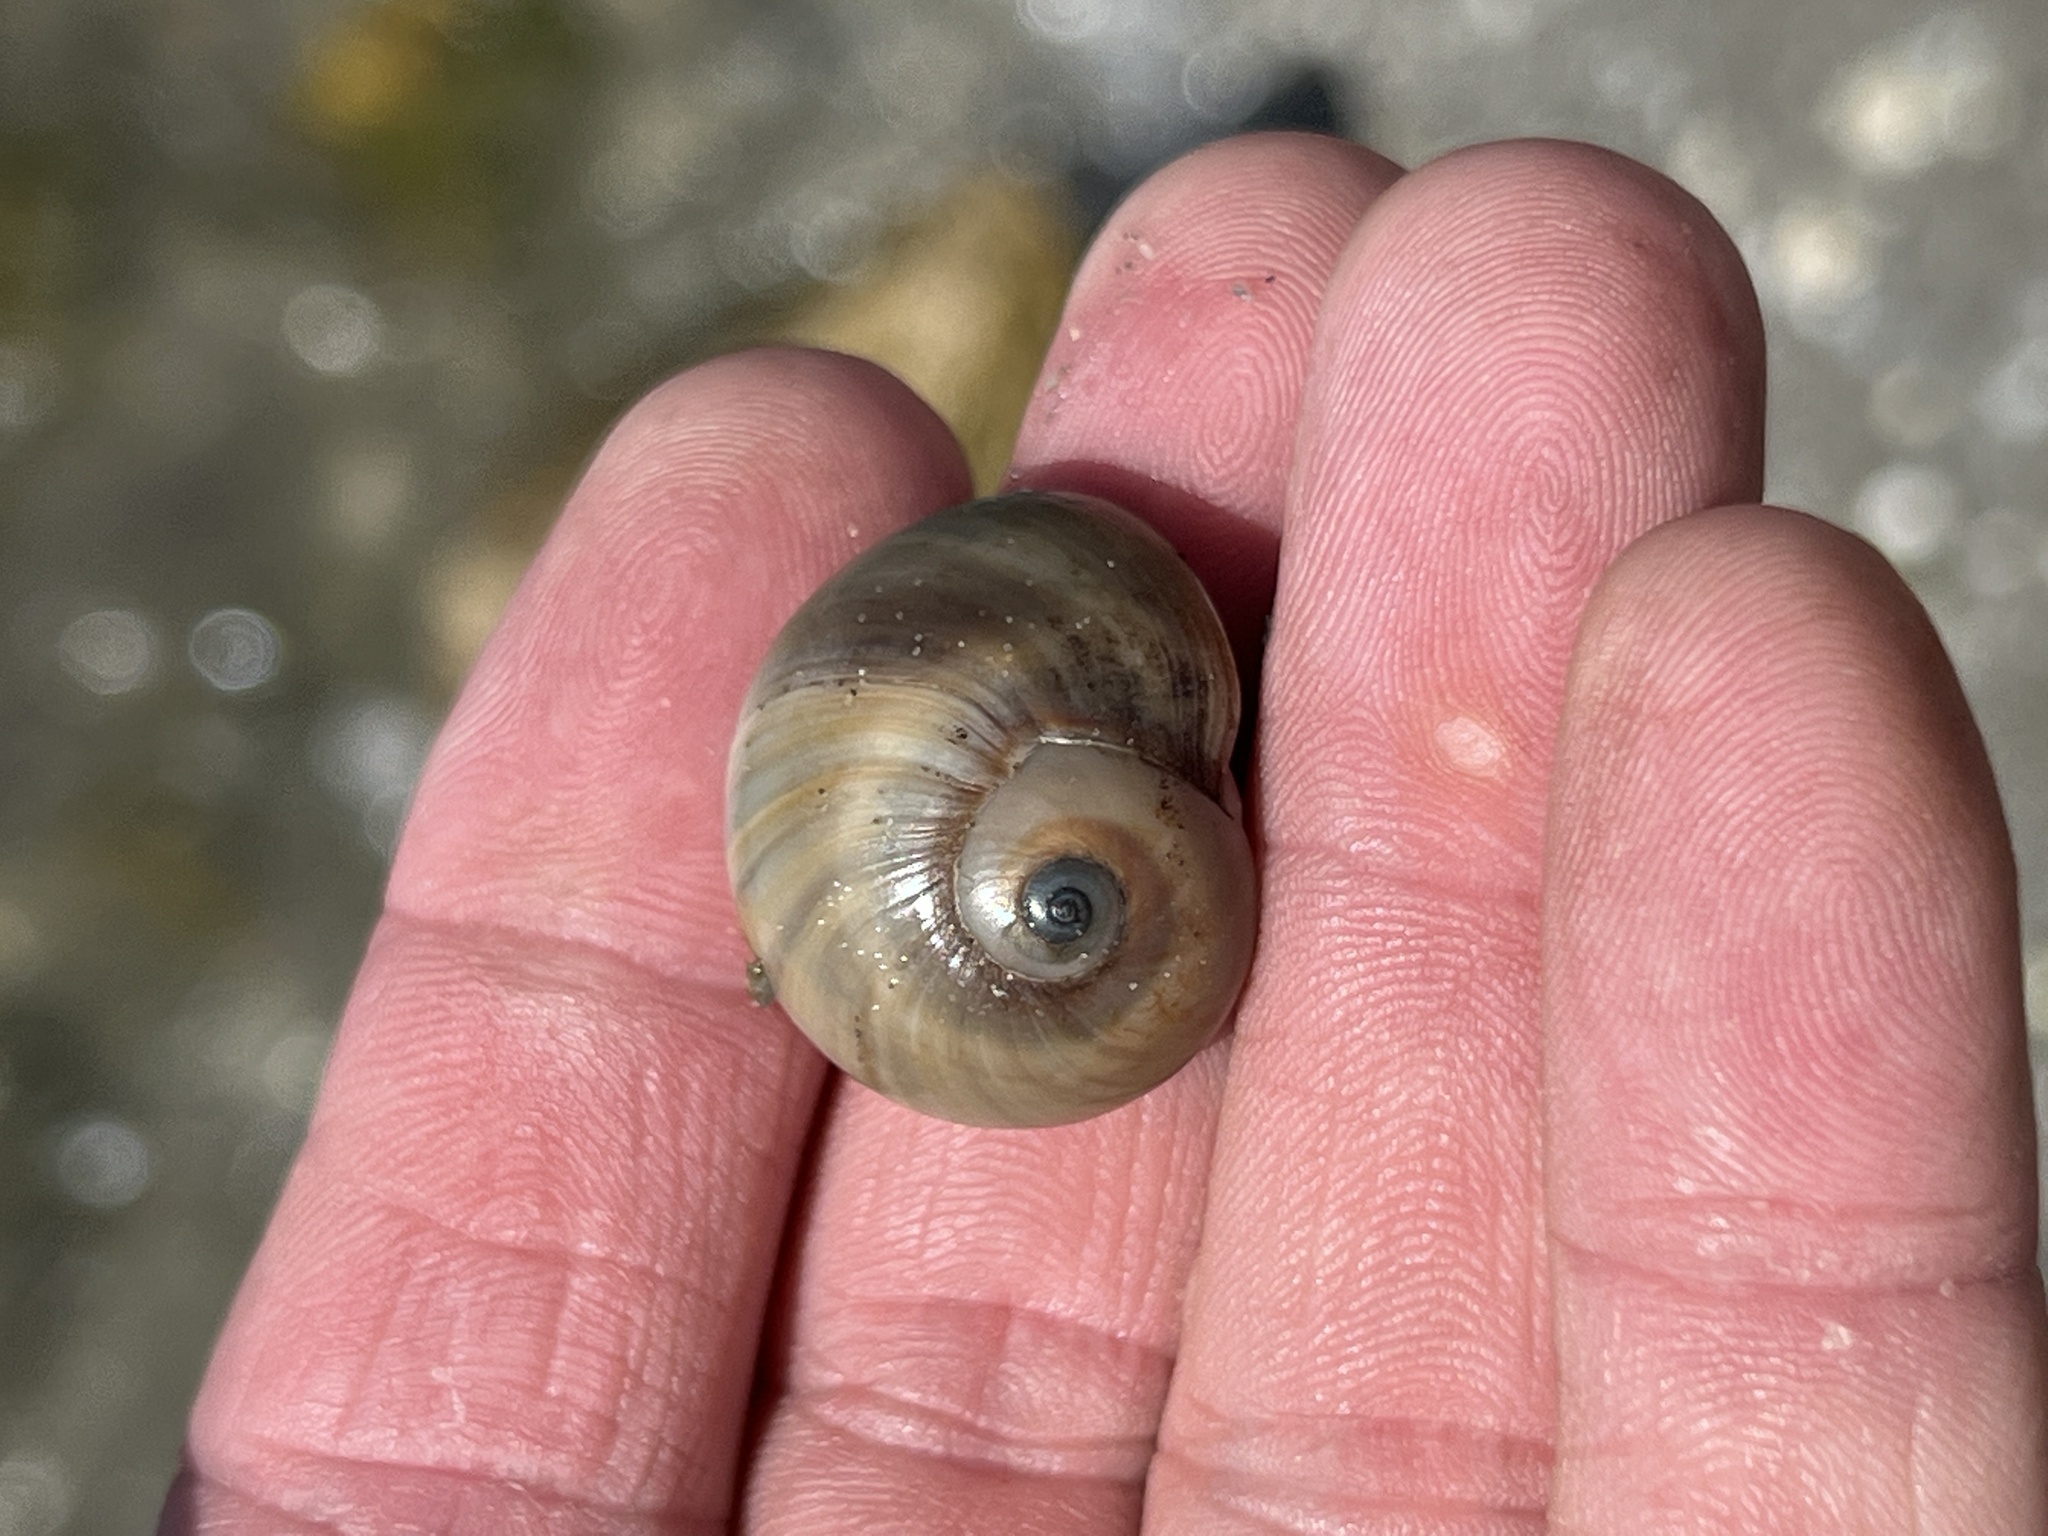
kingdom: Animalia
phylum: Mollusca
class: Gastropoda
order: Littorinimorpha
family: Naticidae
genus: Neverita
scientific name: Neverita delessertiana
